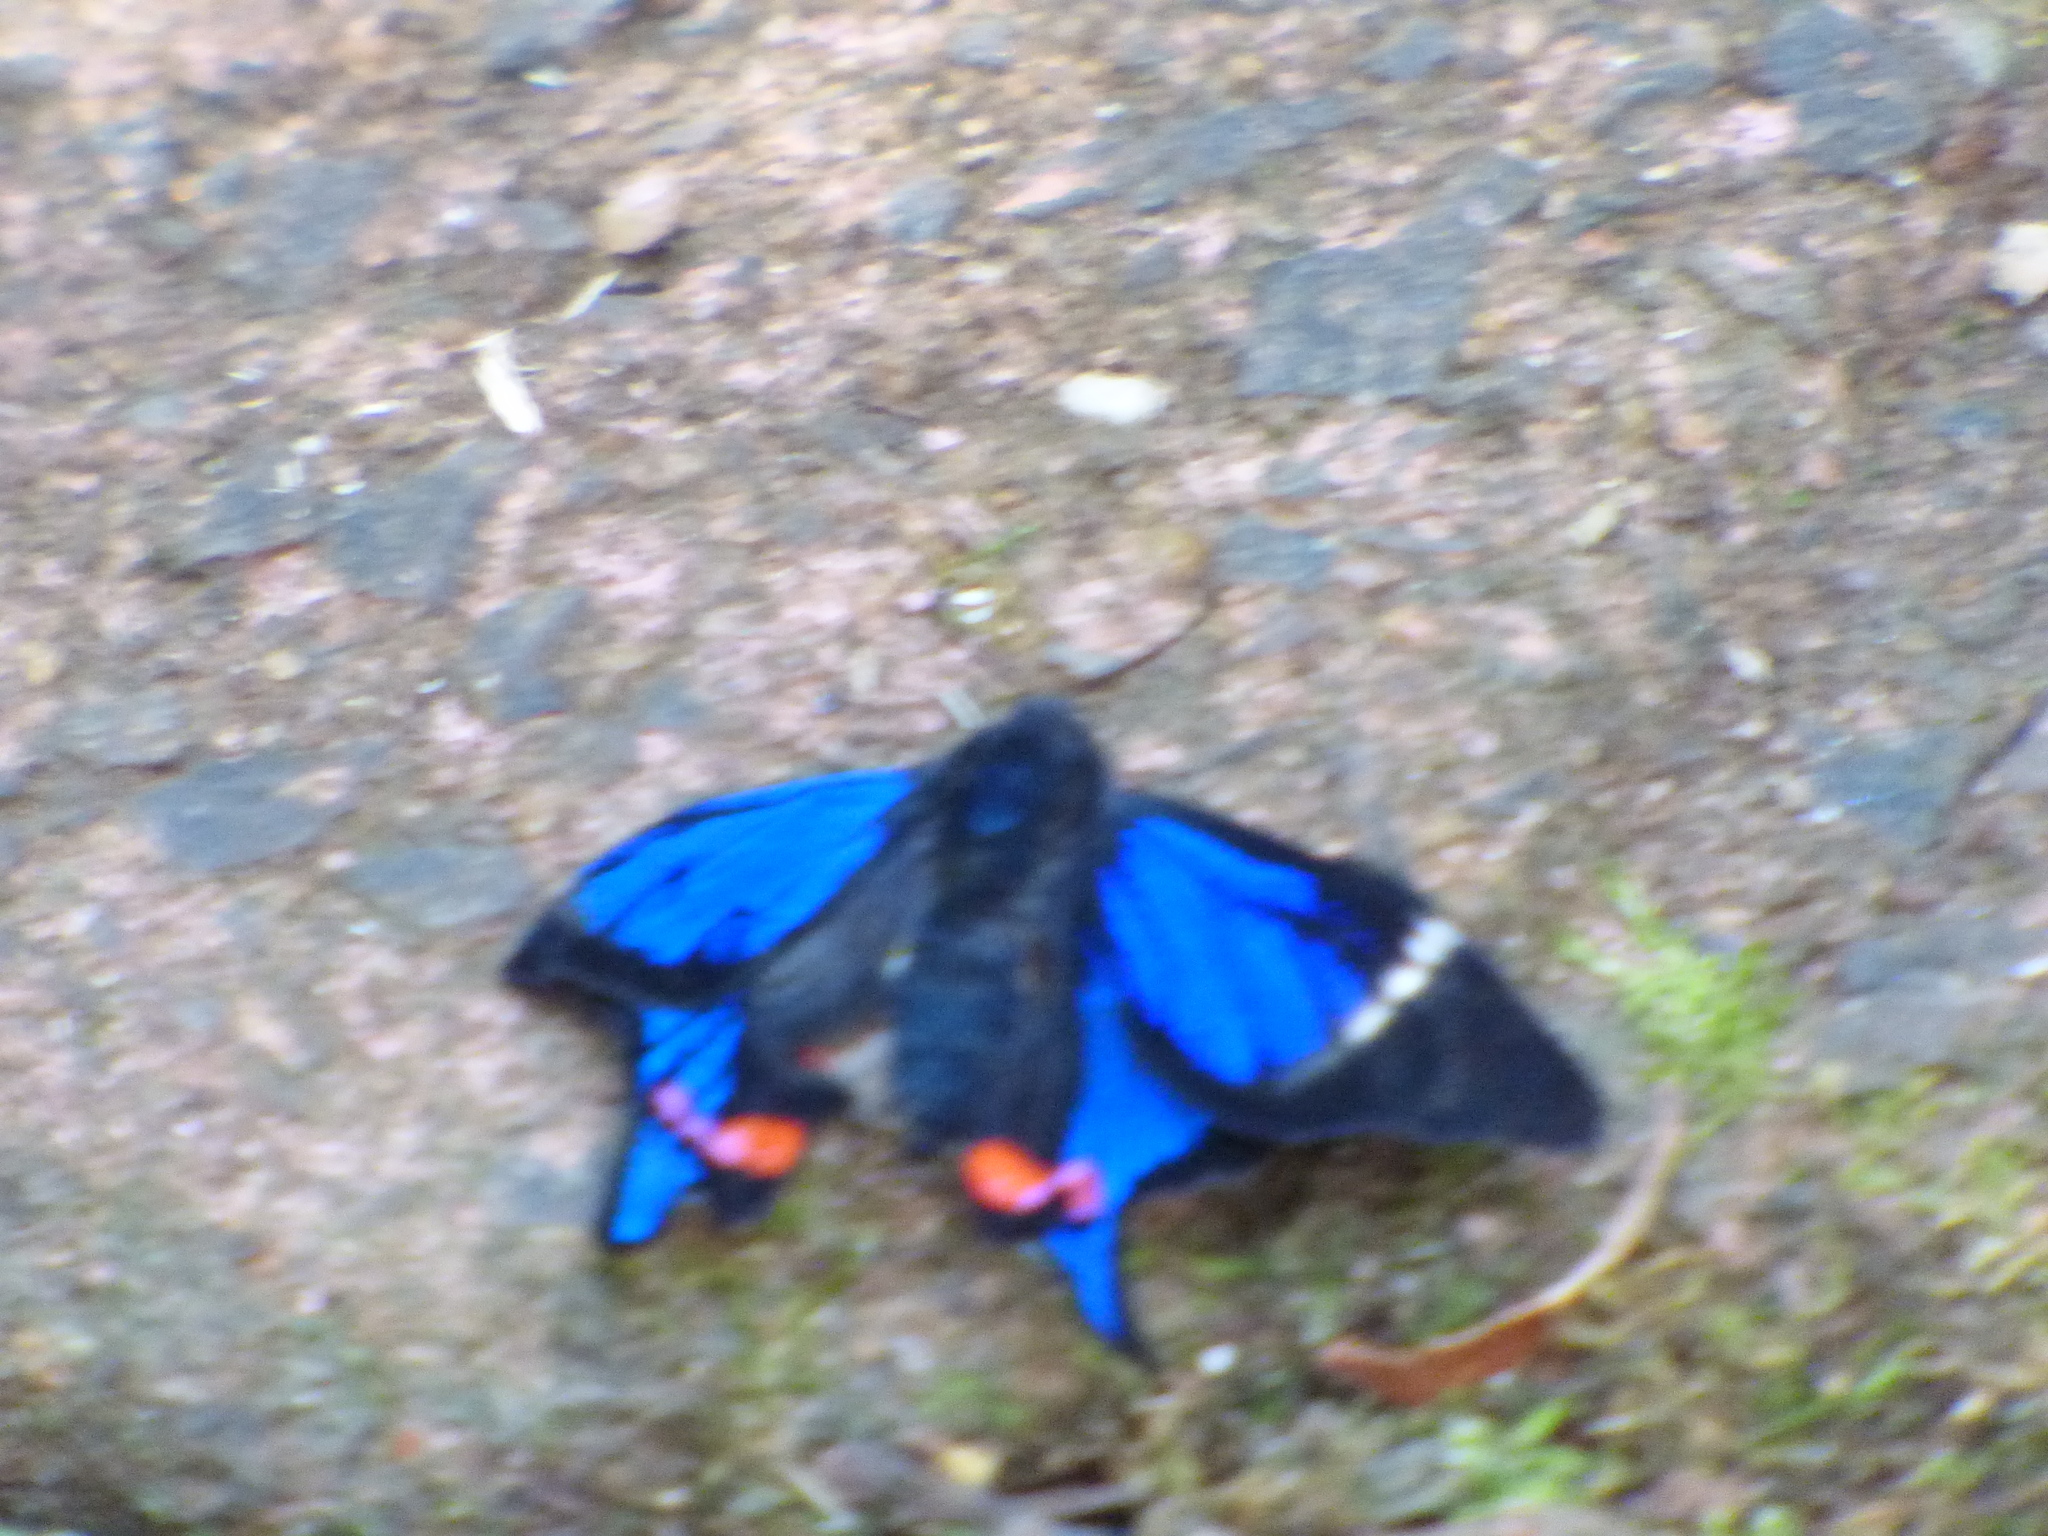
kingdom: Animalia
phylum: Arthropoda
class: Insecta
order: Lepidoptera
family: Riodinidae
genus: Rhetus
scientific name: Rhetus periander
